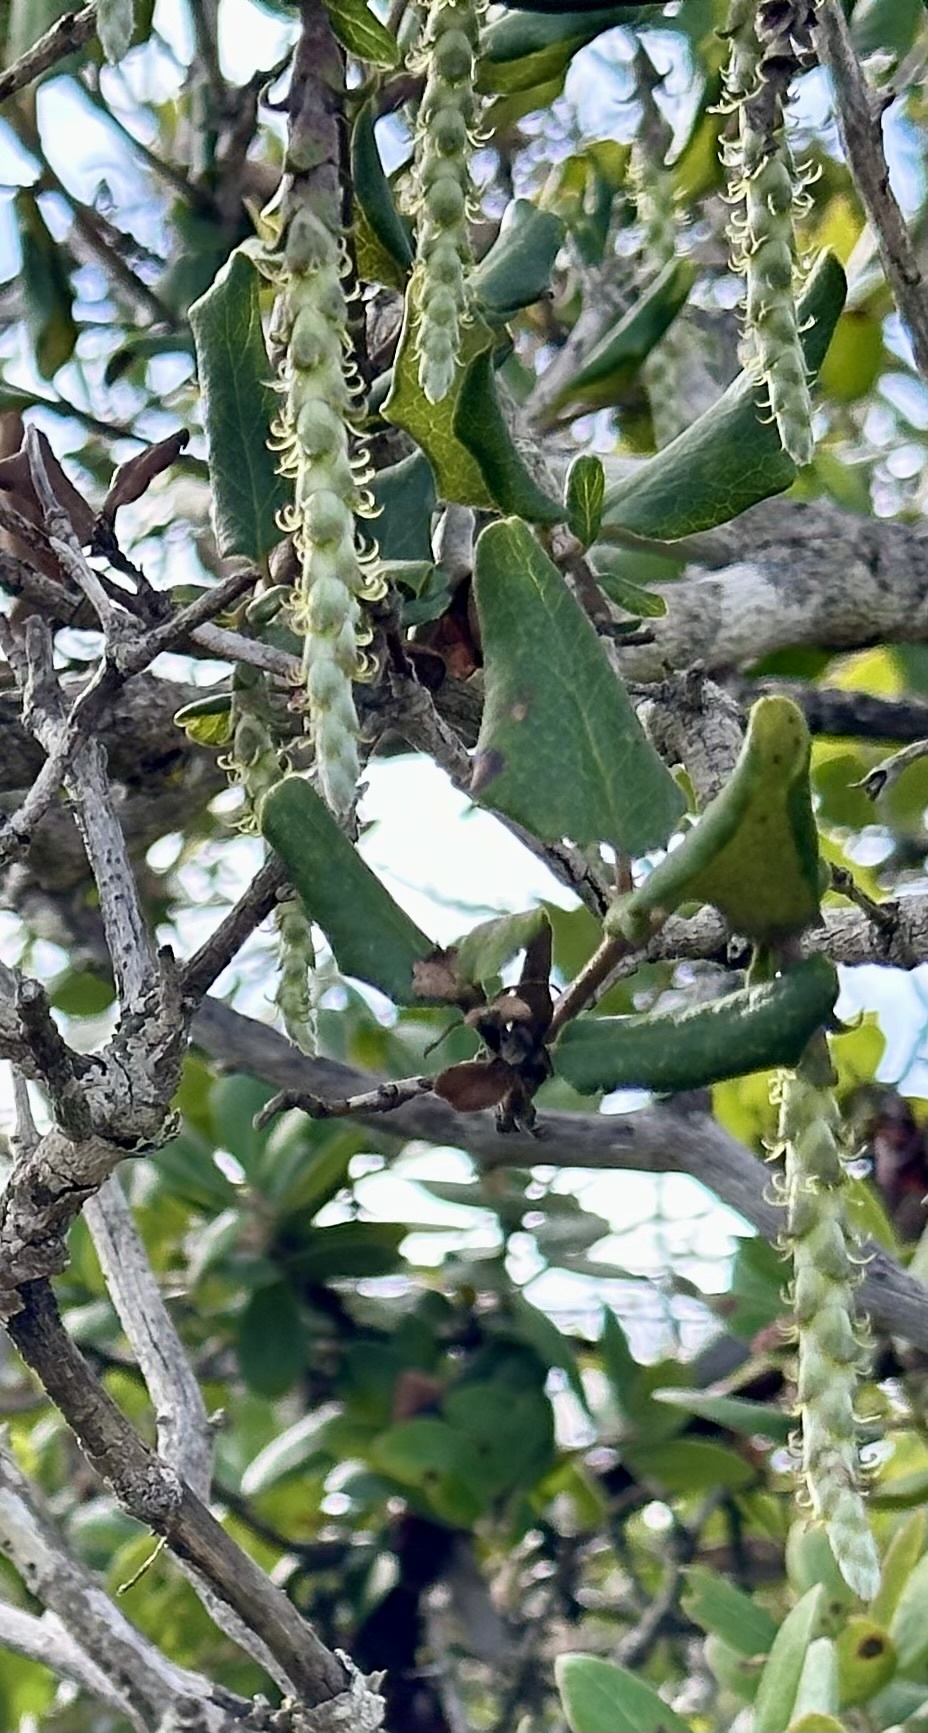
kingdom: Plantae
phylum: Tracheophyta
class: Magnoliopsida
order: Garryales
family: Garryaceae
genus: Garrya
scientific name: Garrya elliptica
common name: Silk-tassel
